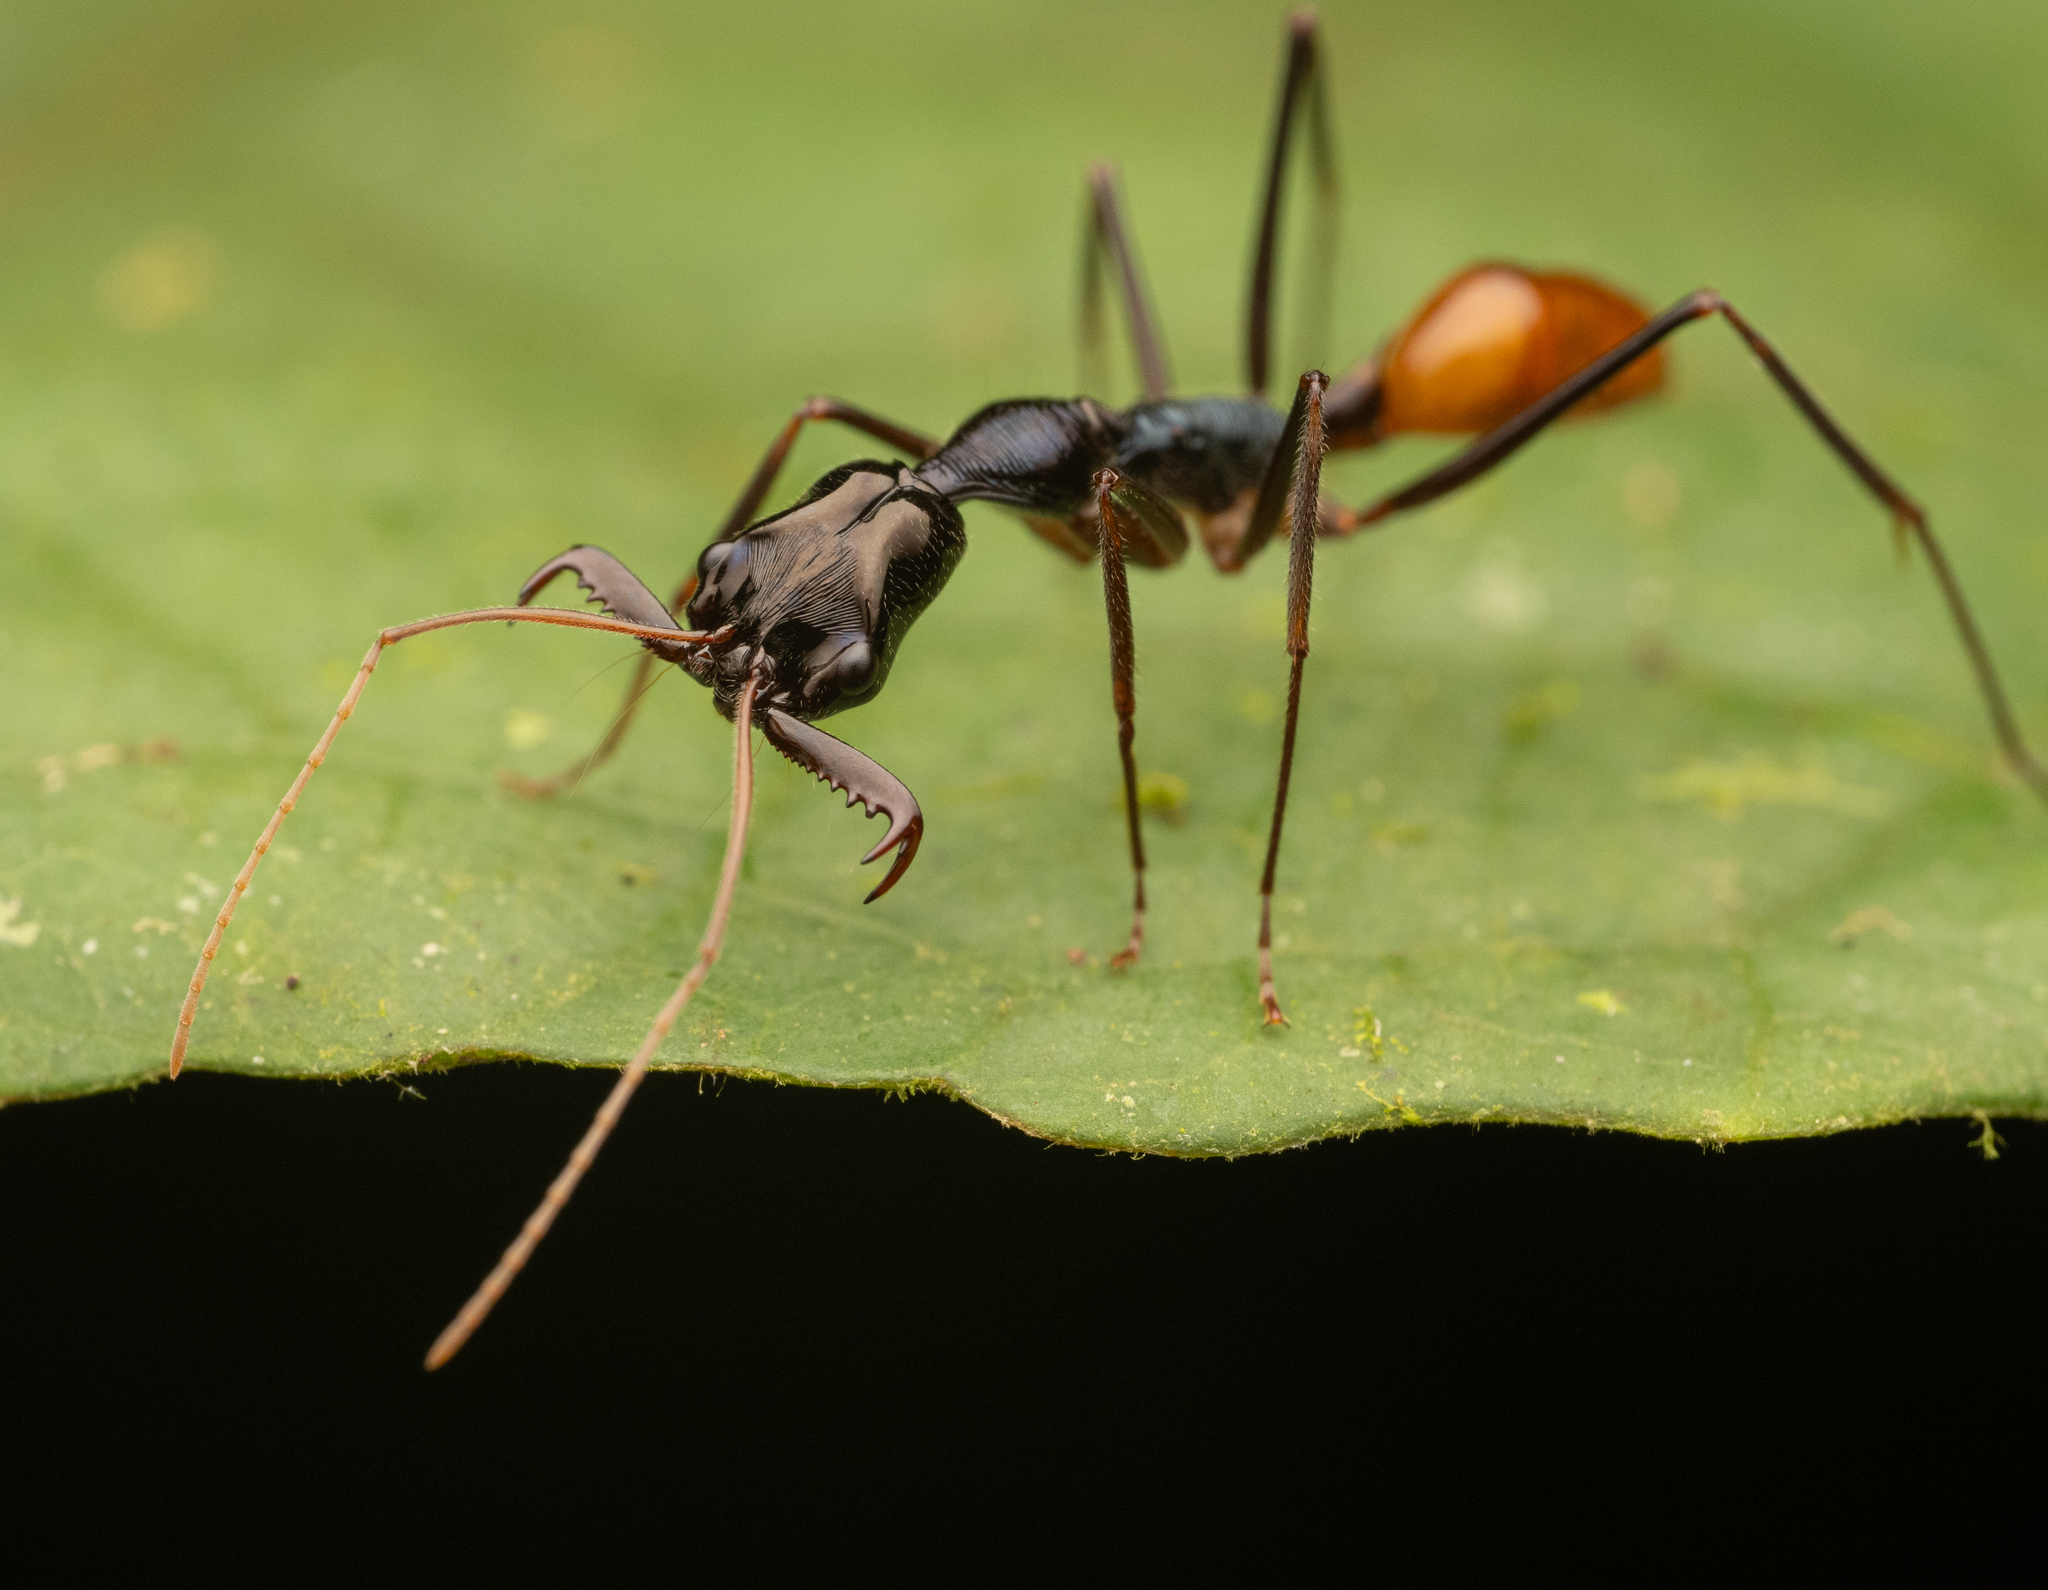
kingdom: Animalia
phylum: Arthropoda
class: Insecta
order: Hymenoptera
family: Formicidae
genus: Odontomachus
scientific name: Odontomachus tyrannicus
